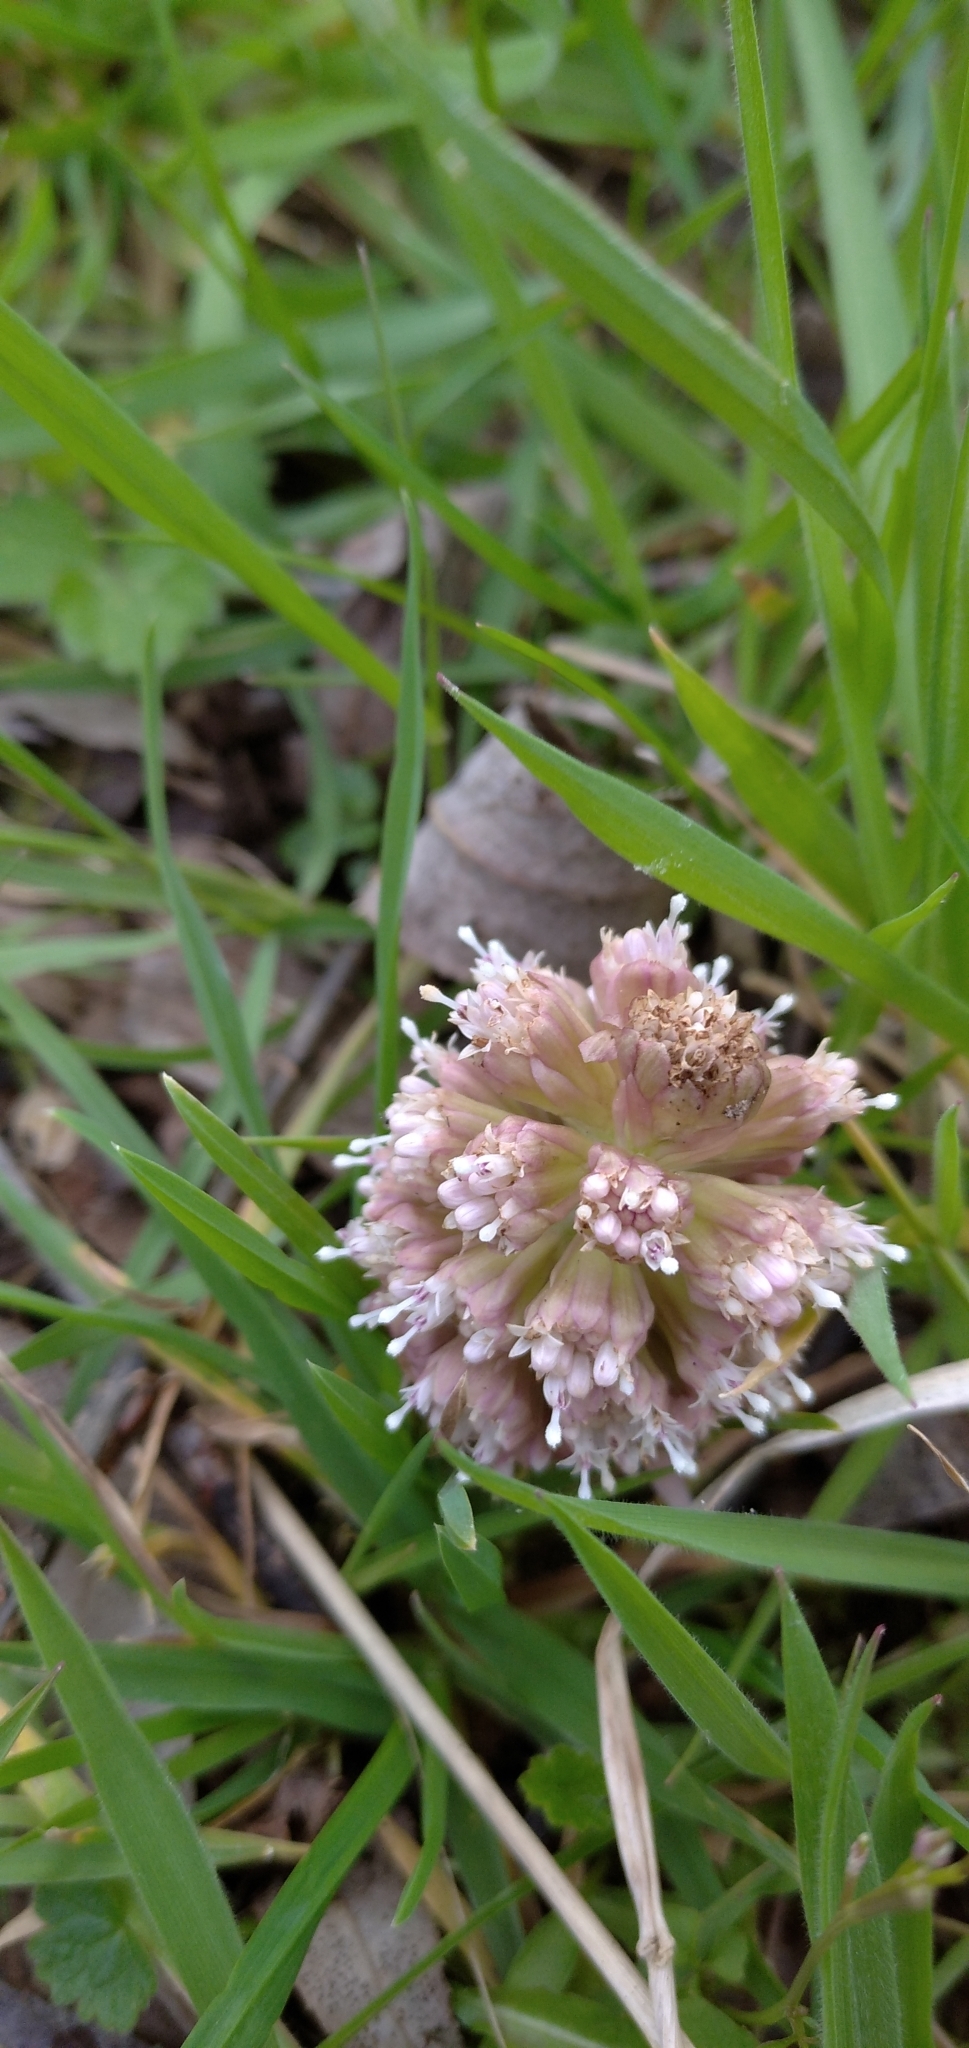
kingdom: Plantae
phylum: Tracheophyta
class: Magnoliopsida
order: Asterales
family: Asteraceae
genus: Petasites
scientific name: Petasites hybridus
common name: Butterbur
